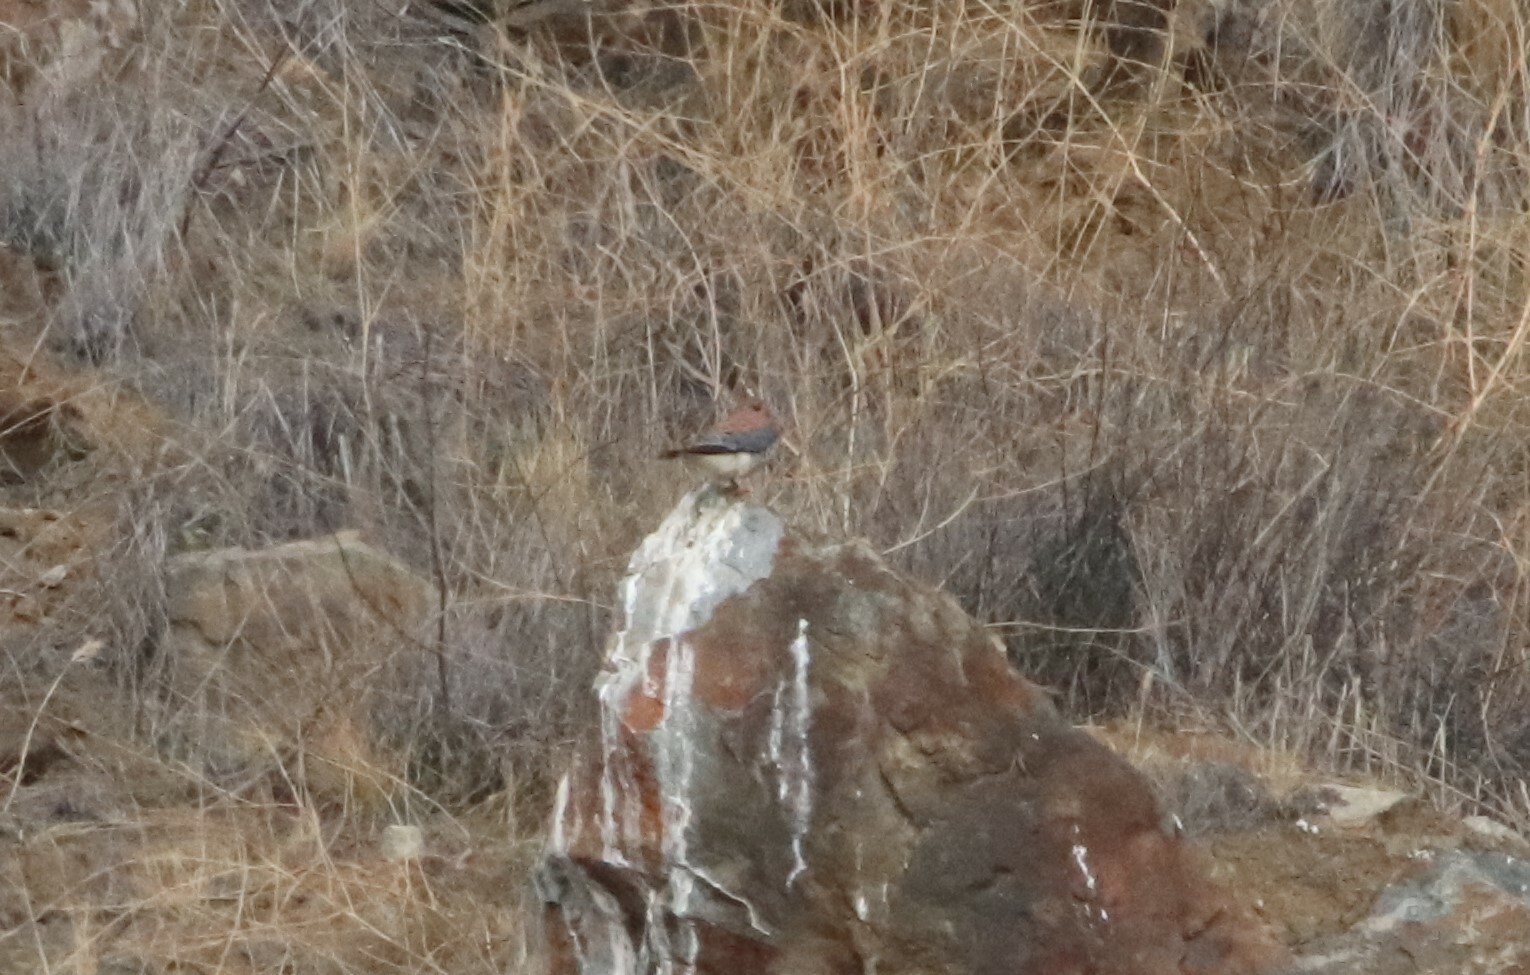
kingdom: Animalia
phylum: Chordata
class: Aves
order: Falconiformes
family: Falconidae
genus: Falco
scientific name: Falco sparverius
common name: American kestrel
